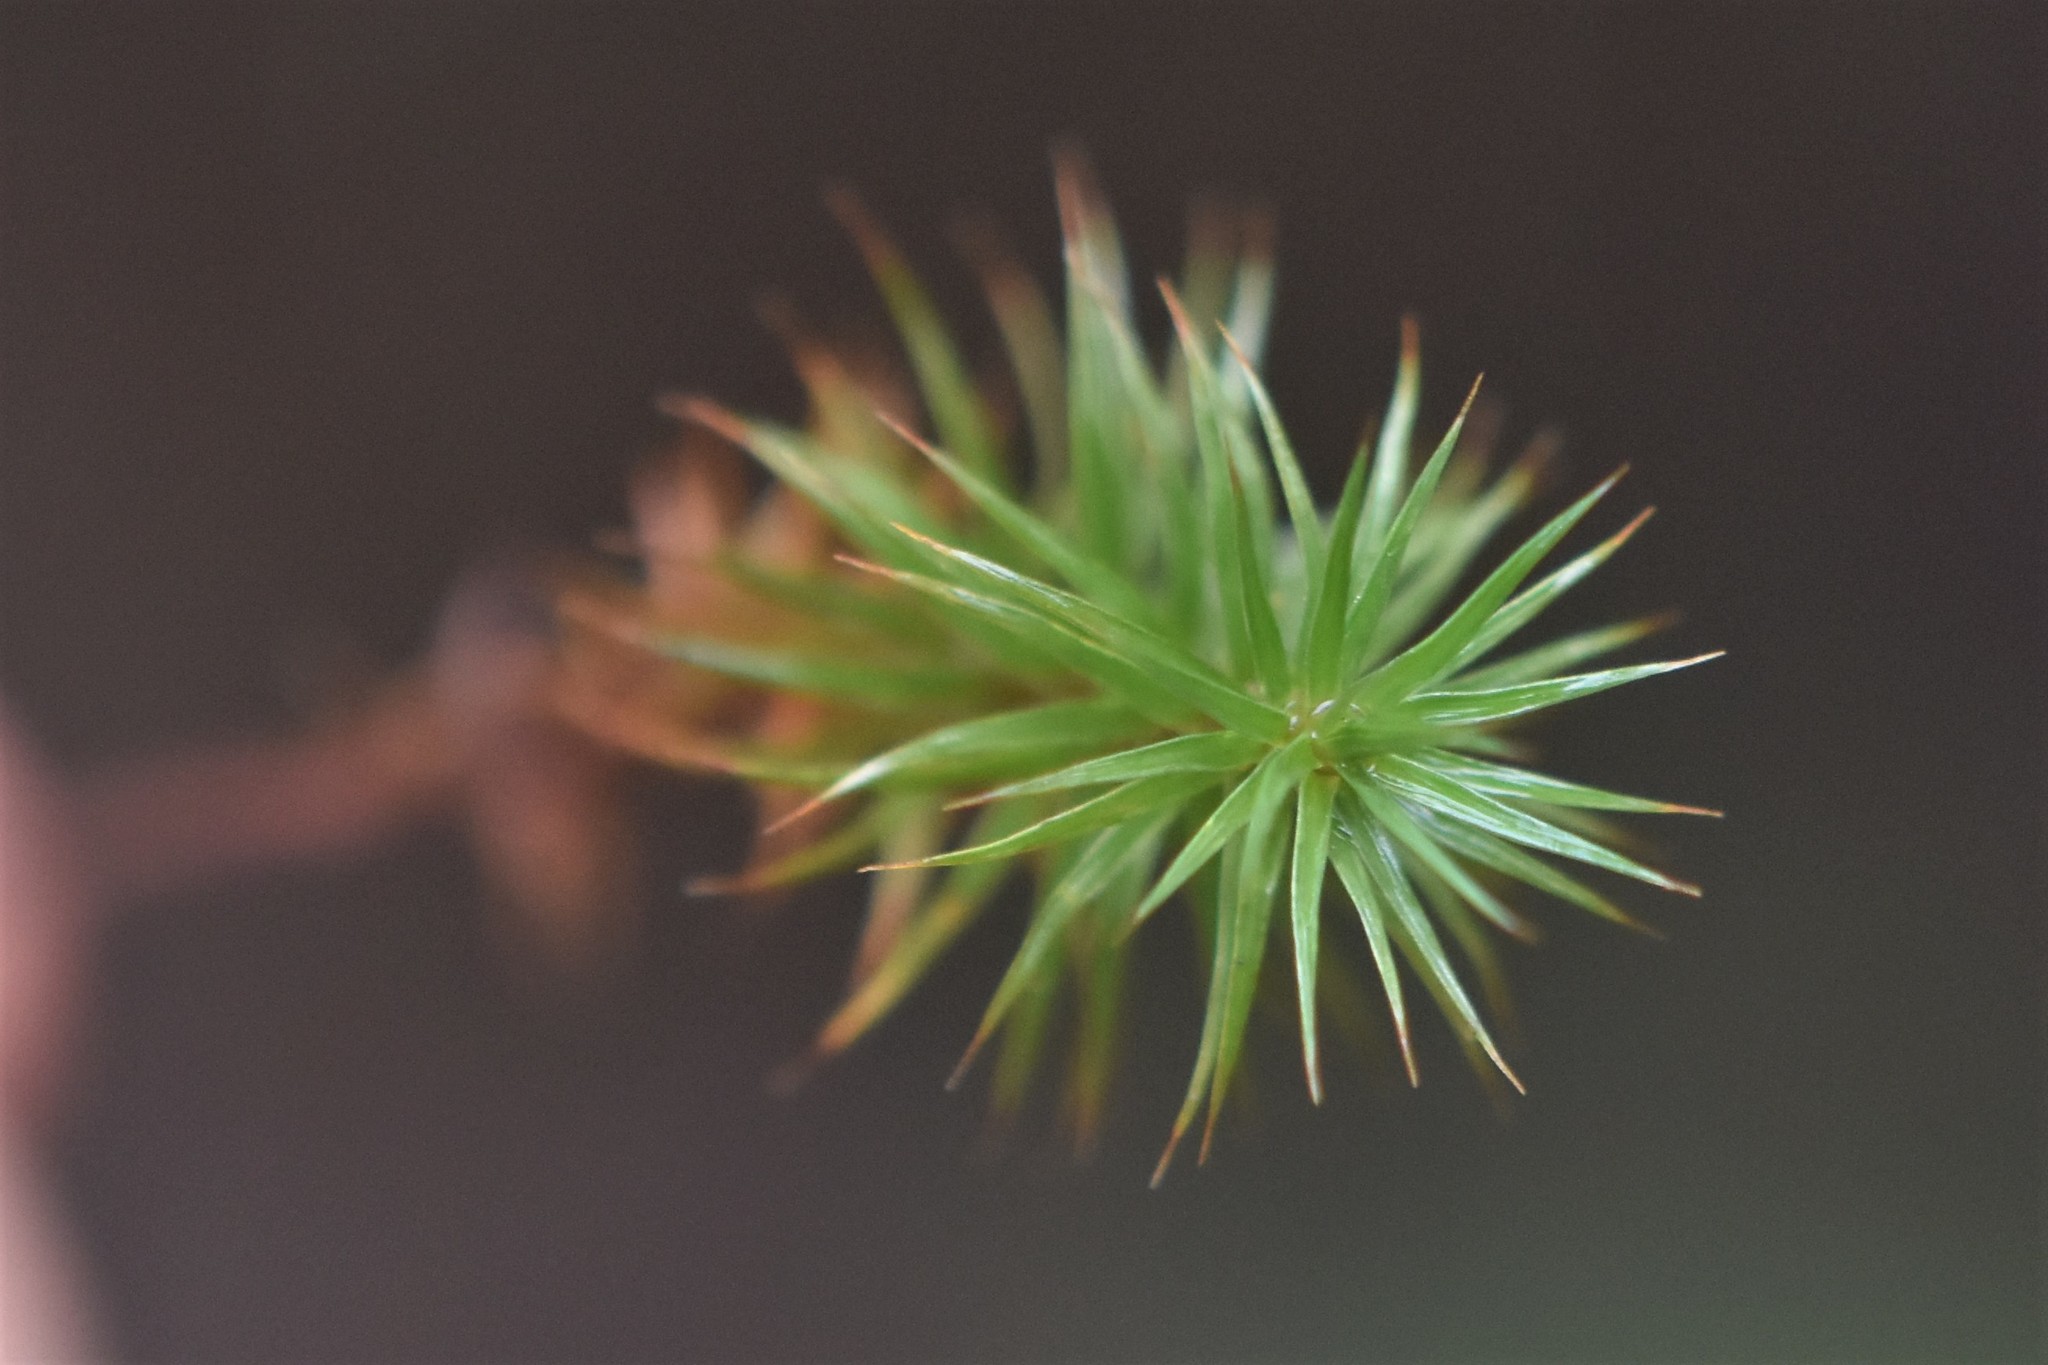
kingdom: Plantae
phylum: Bryophyta
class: Polytrichopsida
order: Polytrichales
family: Polytrichaceae
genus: Polytrichum
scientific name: Polytrichum juniperinum
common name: Juniper haircap moss
